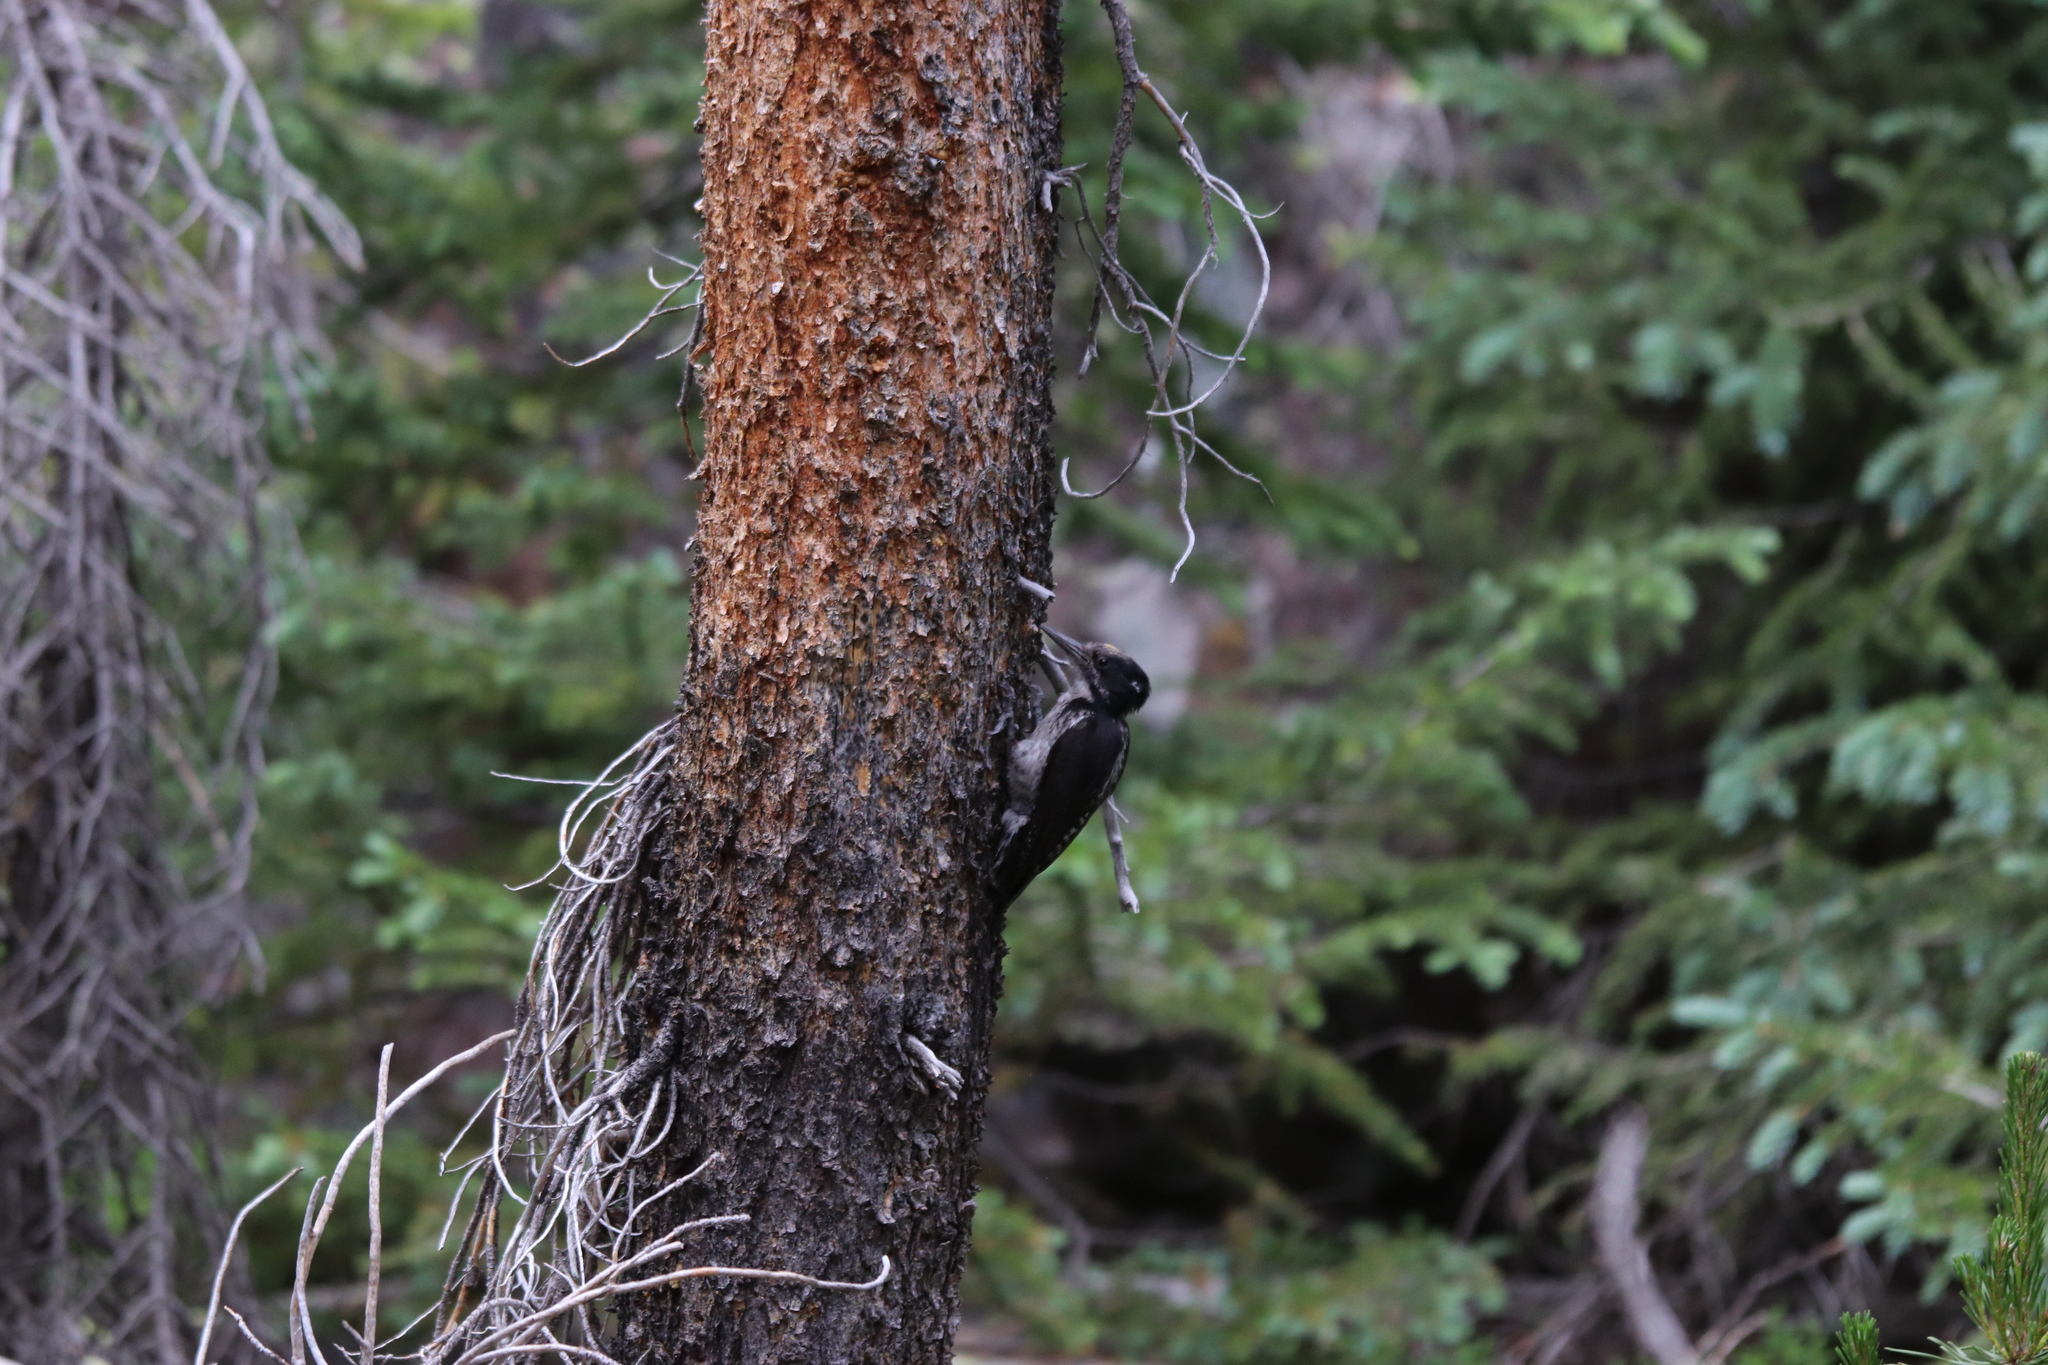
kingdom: Animalia
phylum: Chordata
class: Aves
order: Piciformes
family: Picidae
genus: Picoides
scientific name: Picoides dorsalis
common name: American three-toed woodpecker
